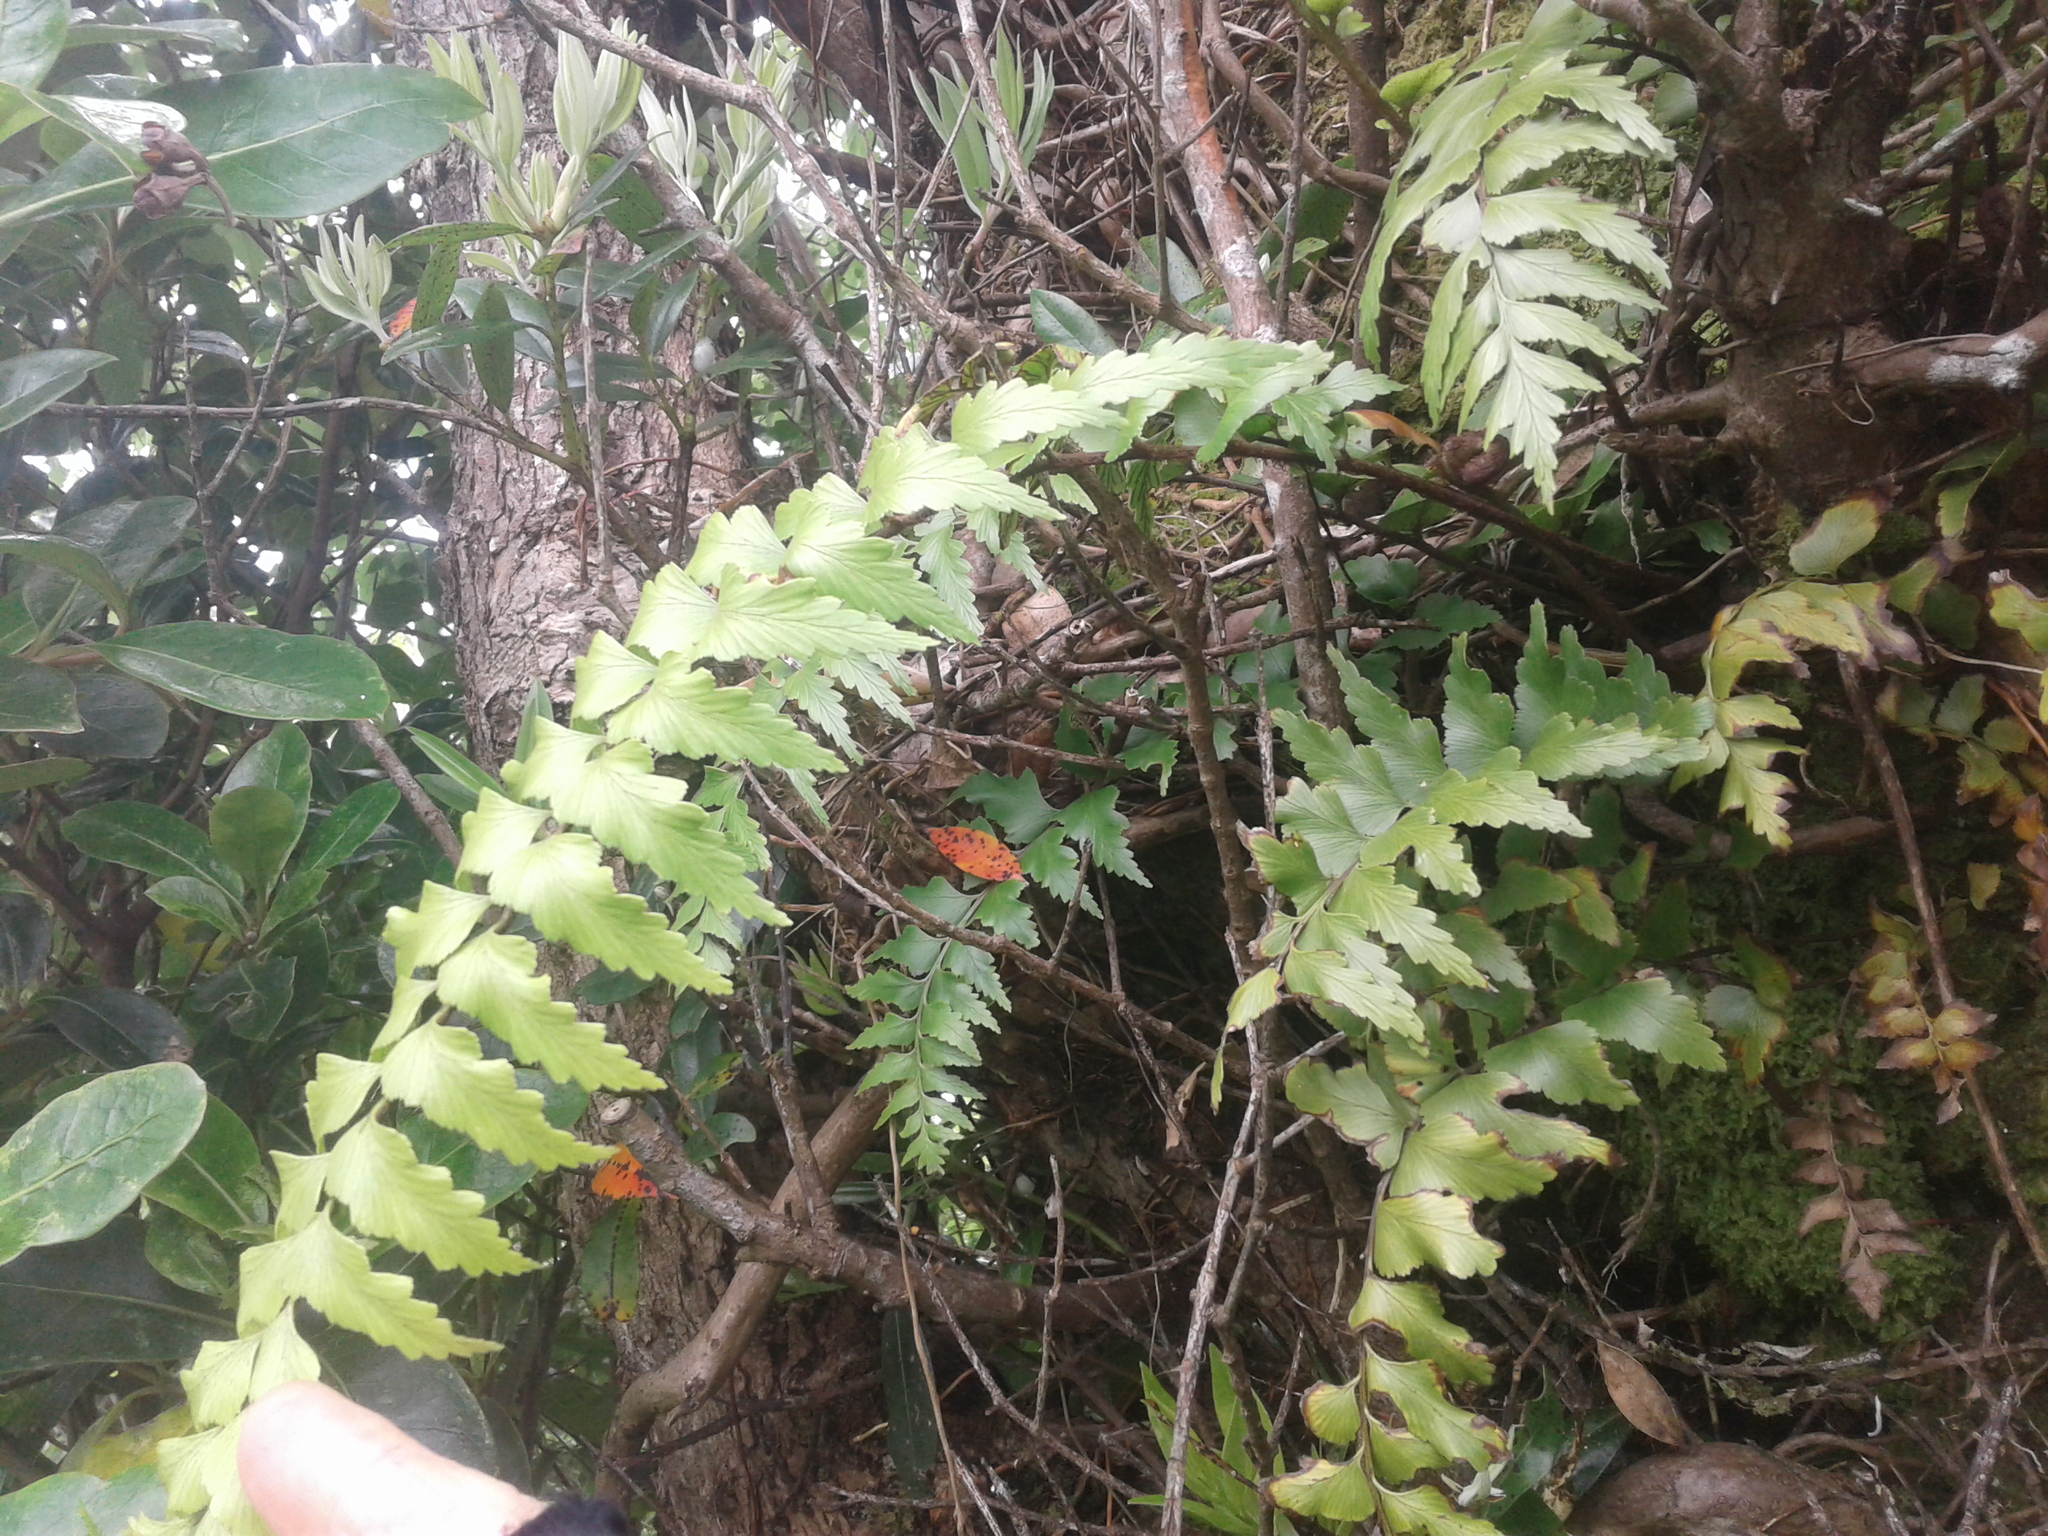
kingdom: Plantae
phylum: Tracheophyta
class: Polypodiopsida
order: Polypodiales
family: Aspleniaceae
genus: Asplenium
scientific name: Asplenium polyodon
